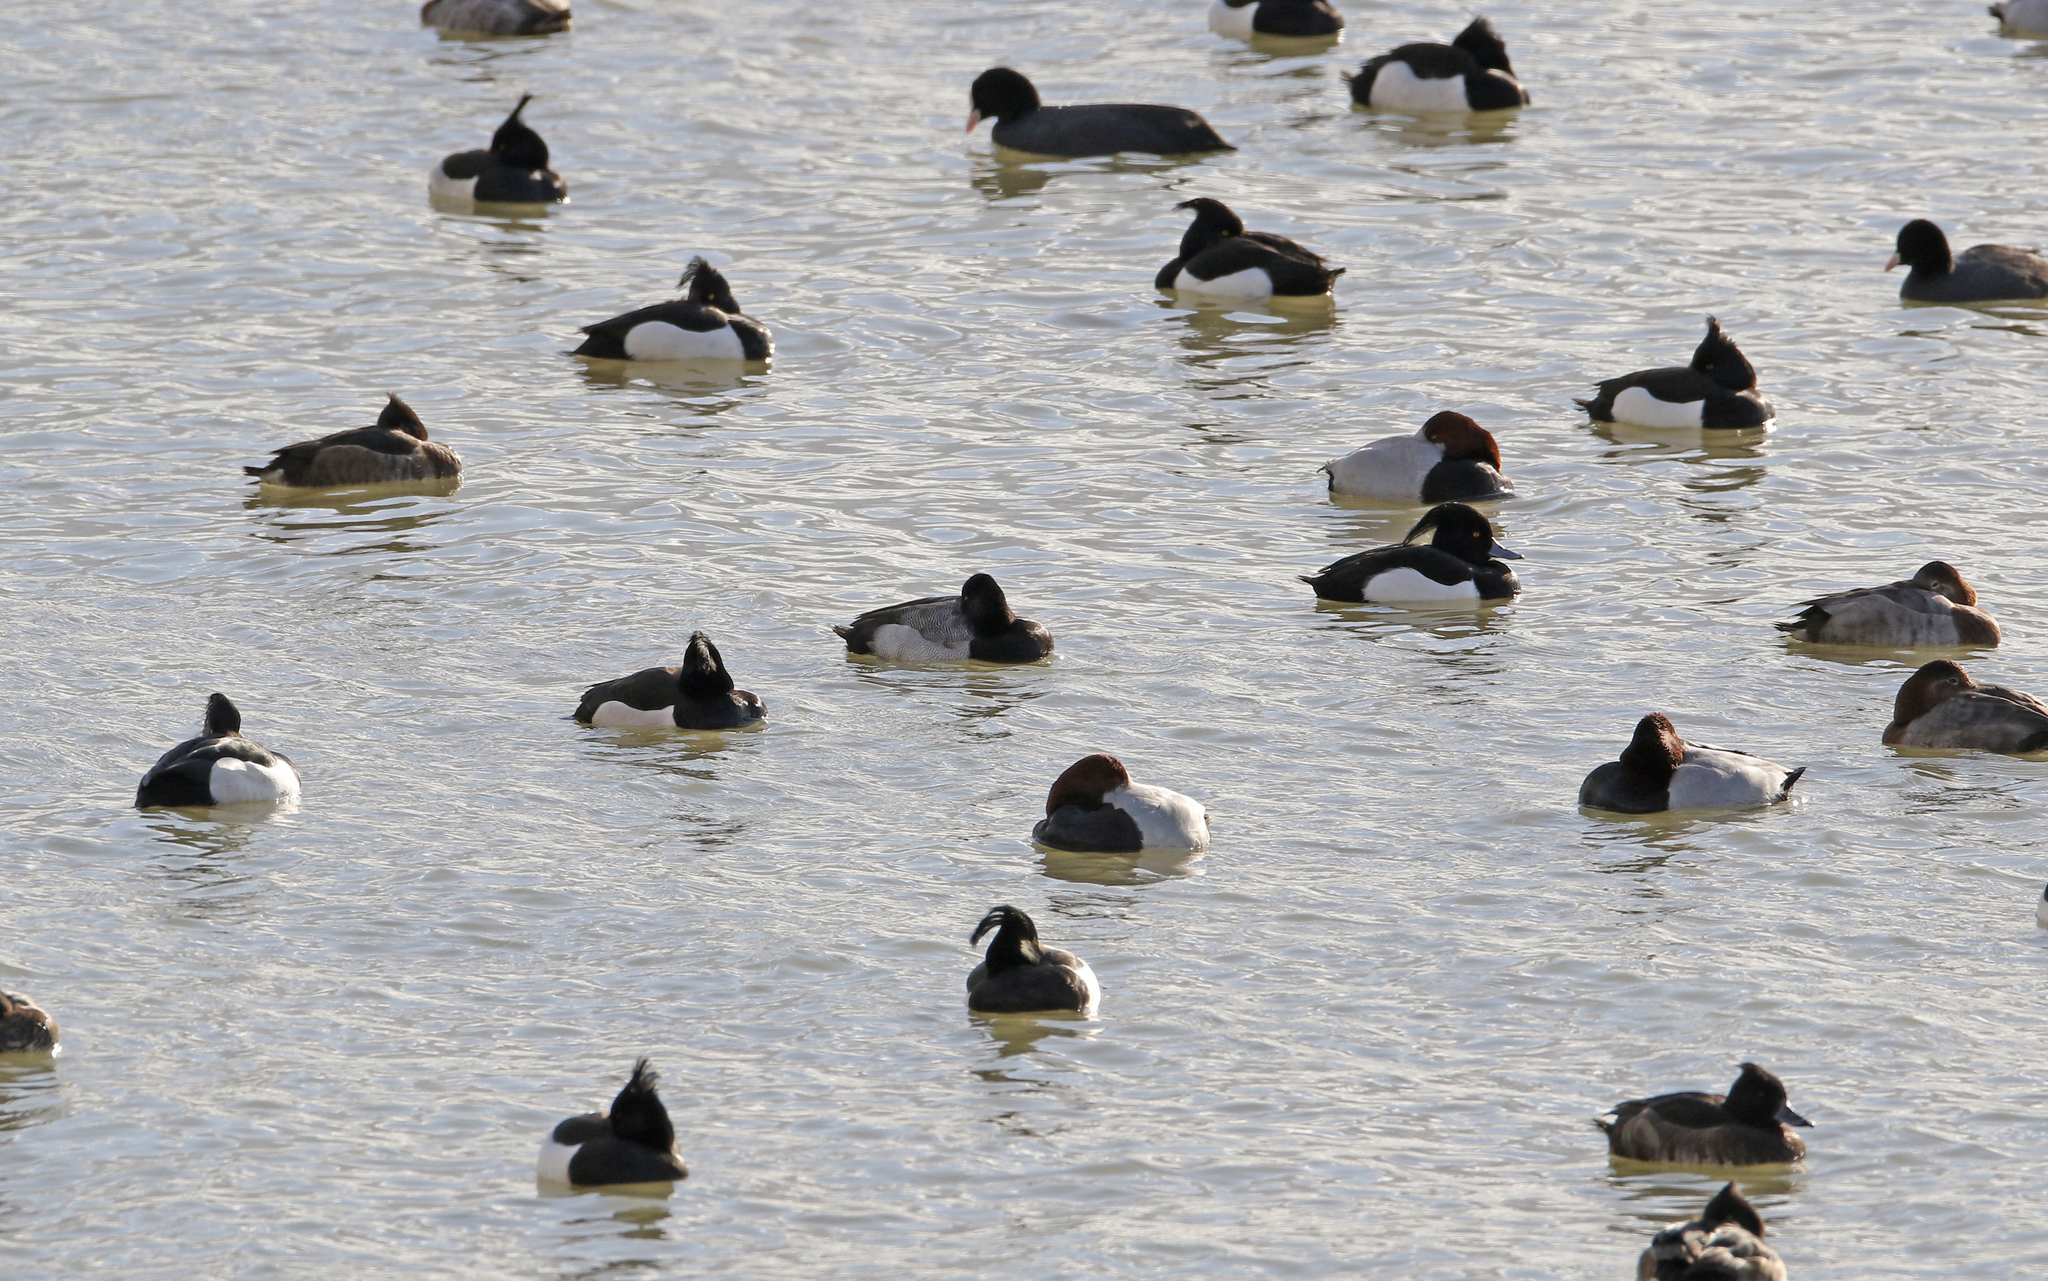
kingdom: Animalia
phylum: Chordata
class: Aves
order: Anseriformes
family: Anatidae
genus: Aythya
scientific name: Aythya affinis
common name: Lesser scaup
